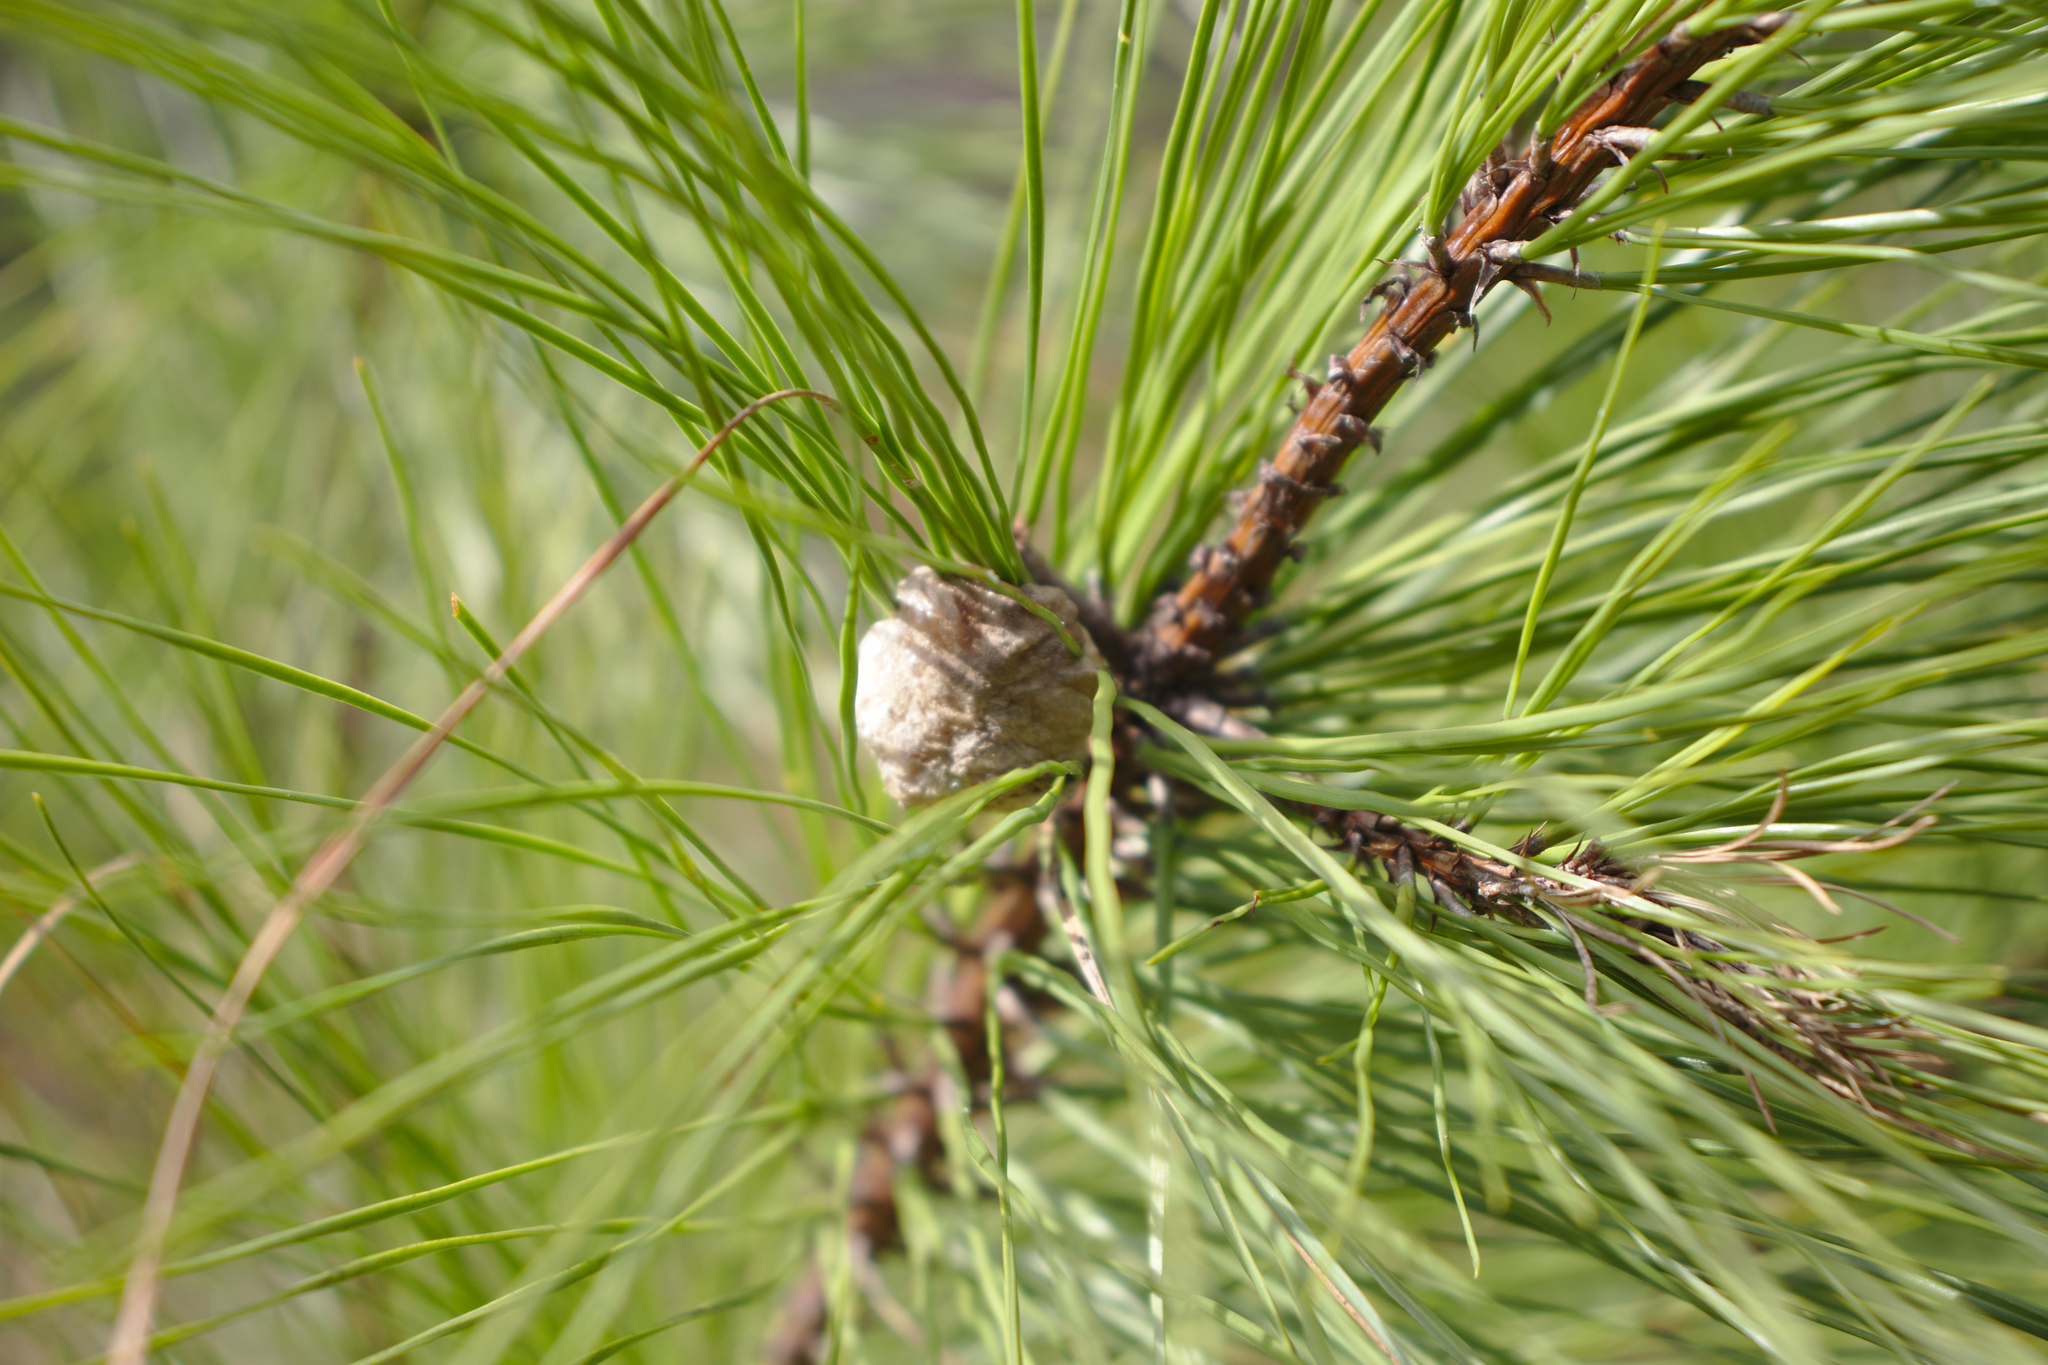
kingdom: Animalia
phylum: Arthropoda
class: Insecta
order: Mantodea
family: Mantidae
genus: Tenodera
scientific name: Tenodera sinensis
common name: Chinese mantis
